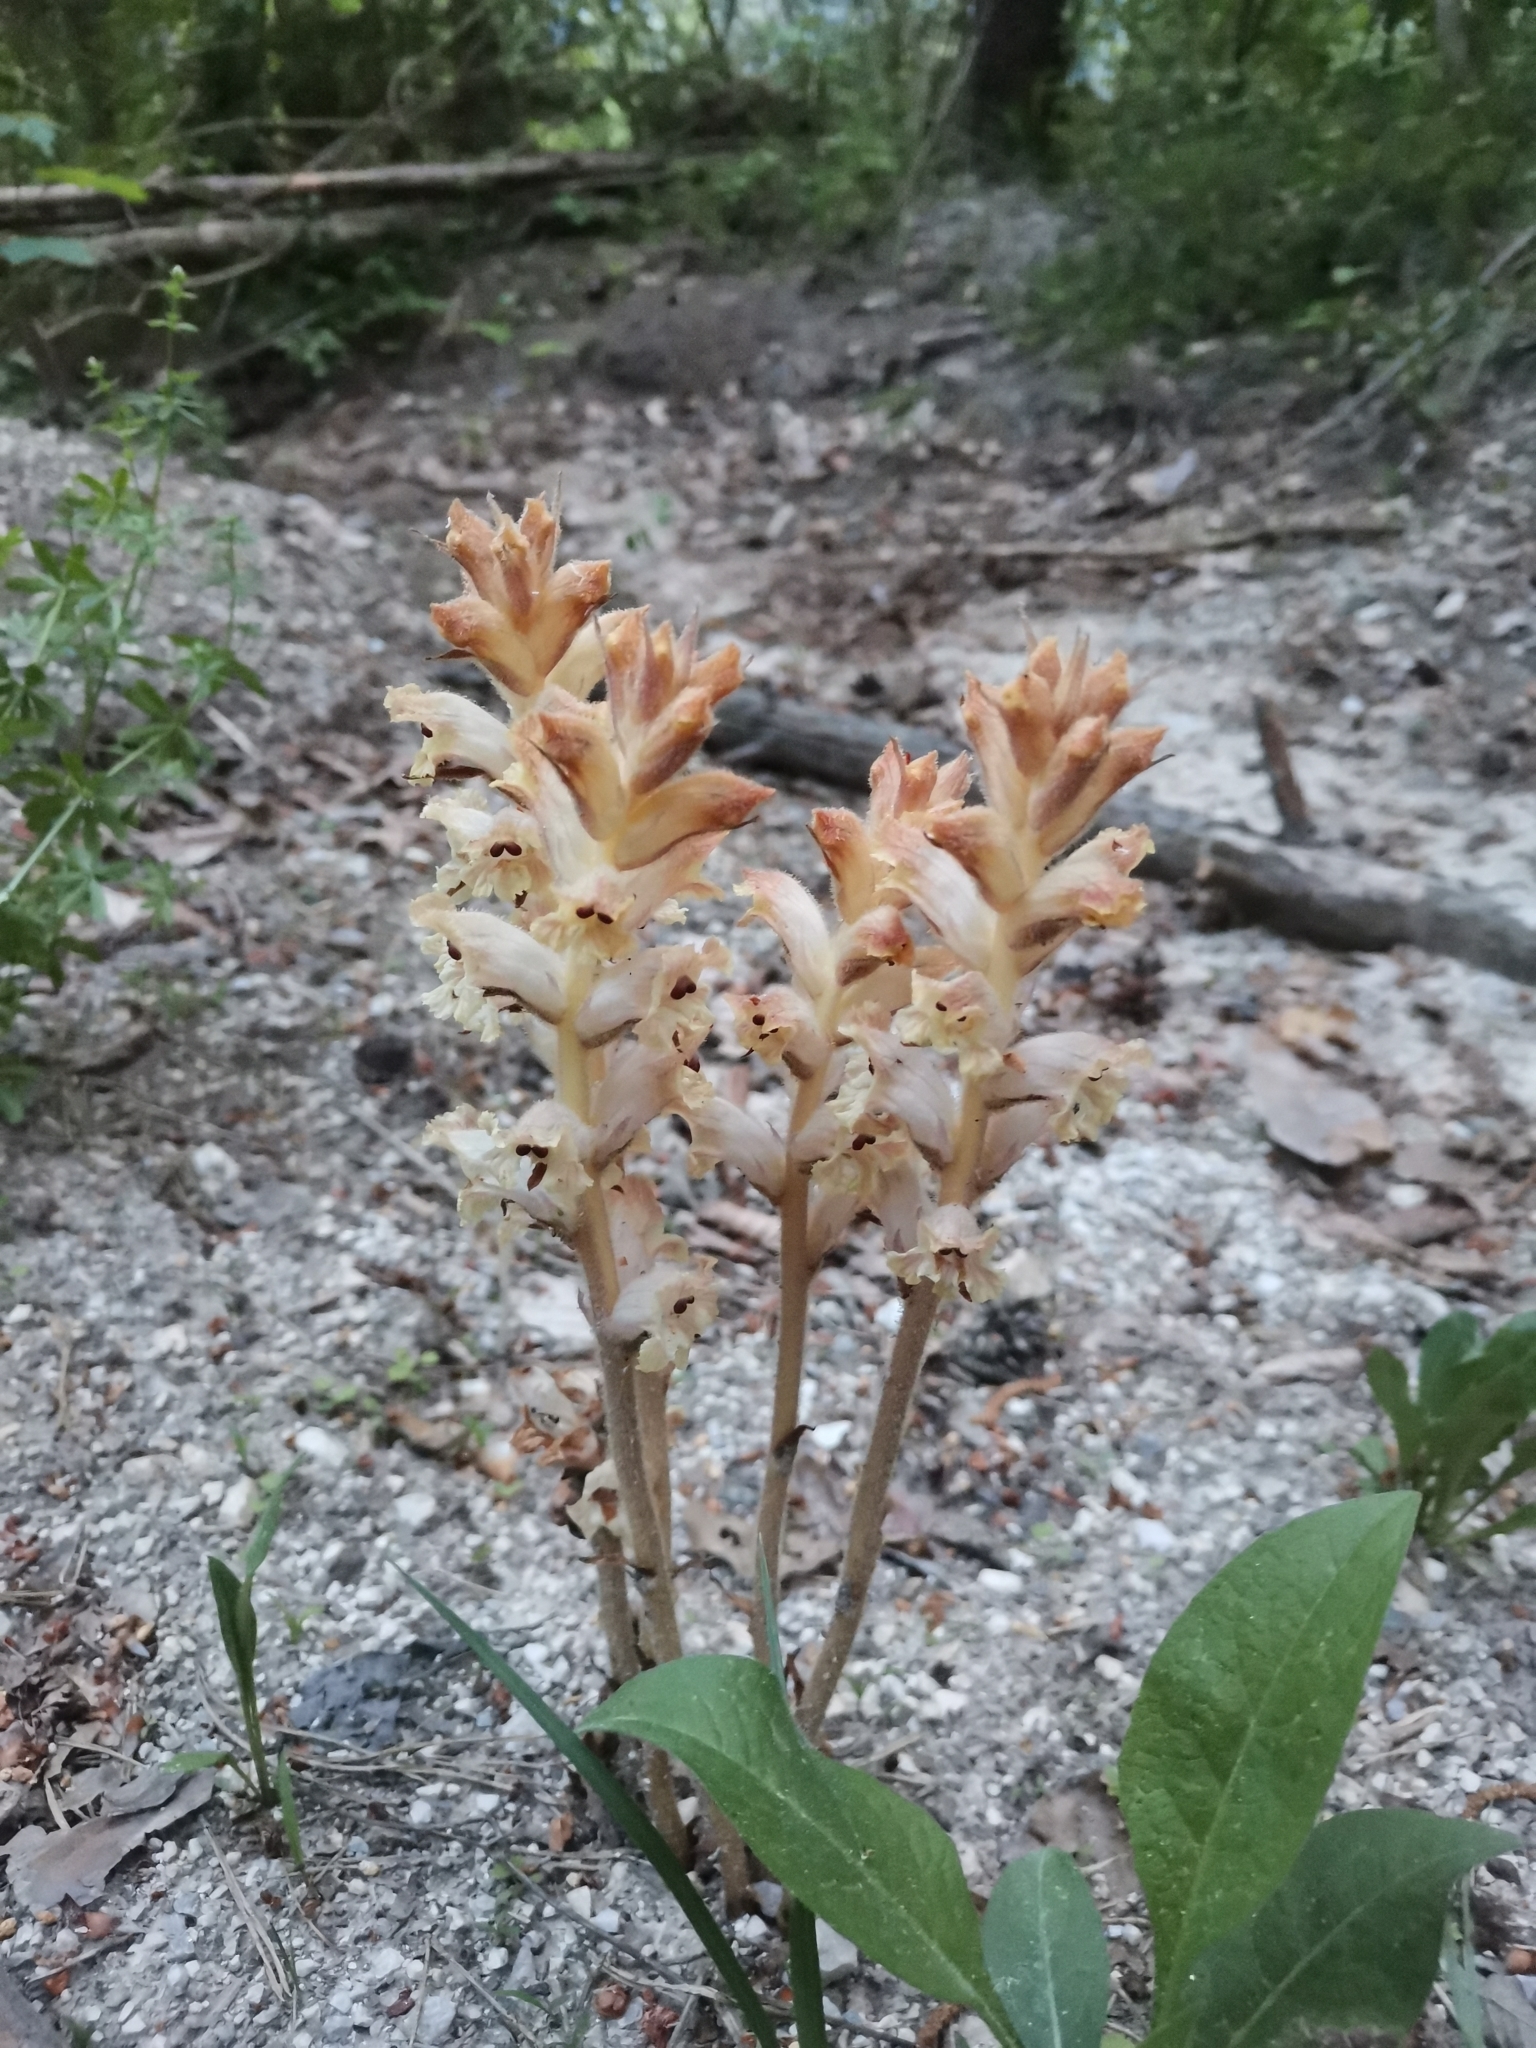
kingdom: Plantae
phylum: Tracheophyta
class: Magnoliopsida
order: Lamiales
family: Orobanchaceae
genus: Orobanche
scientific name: Orobanche caryophyllacea
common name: Bedstraw broomrape
